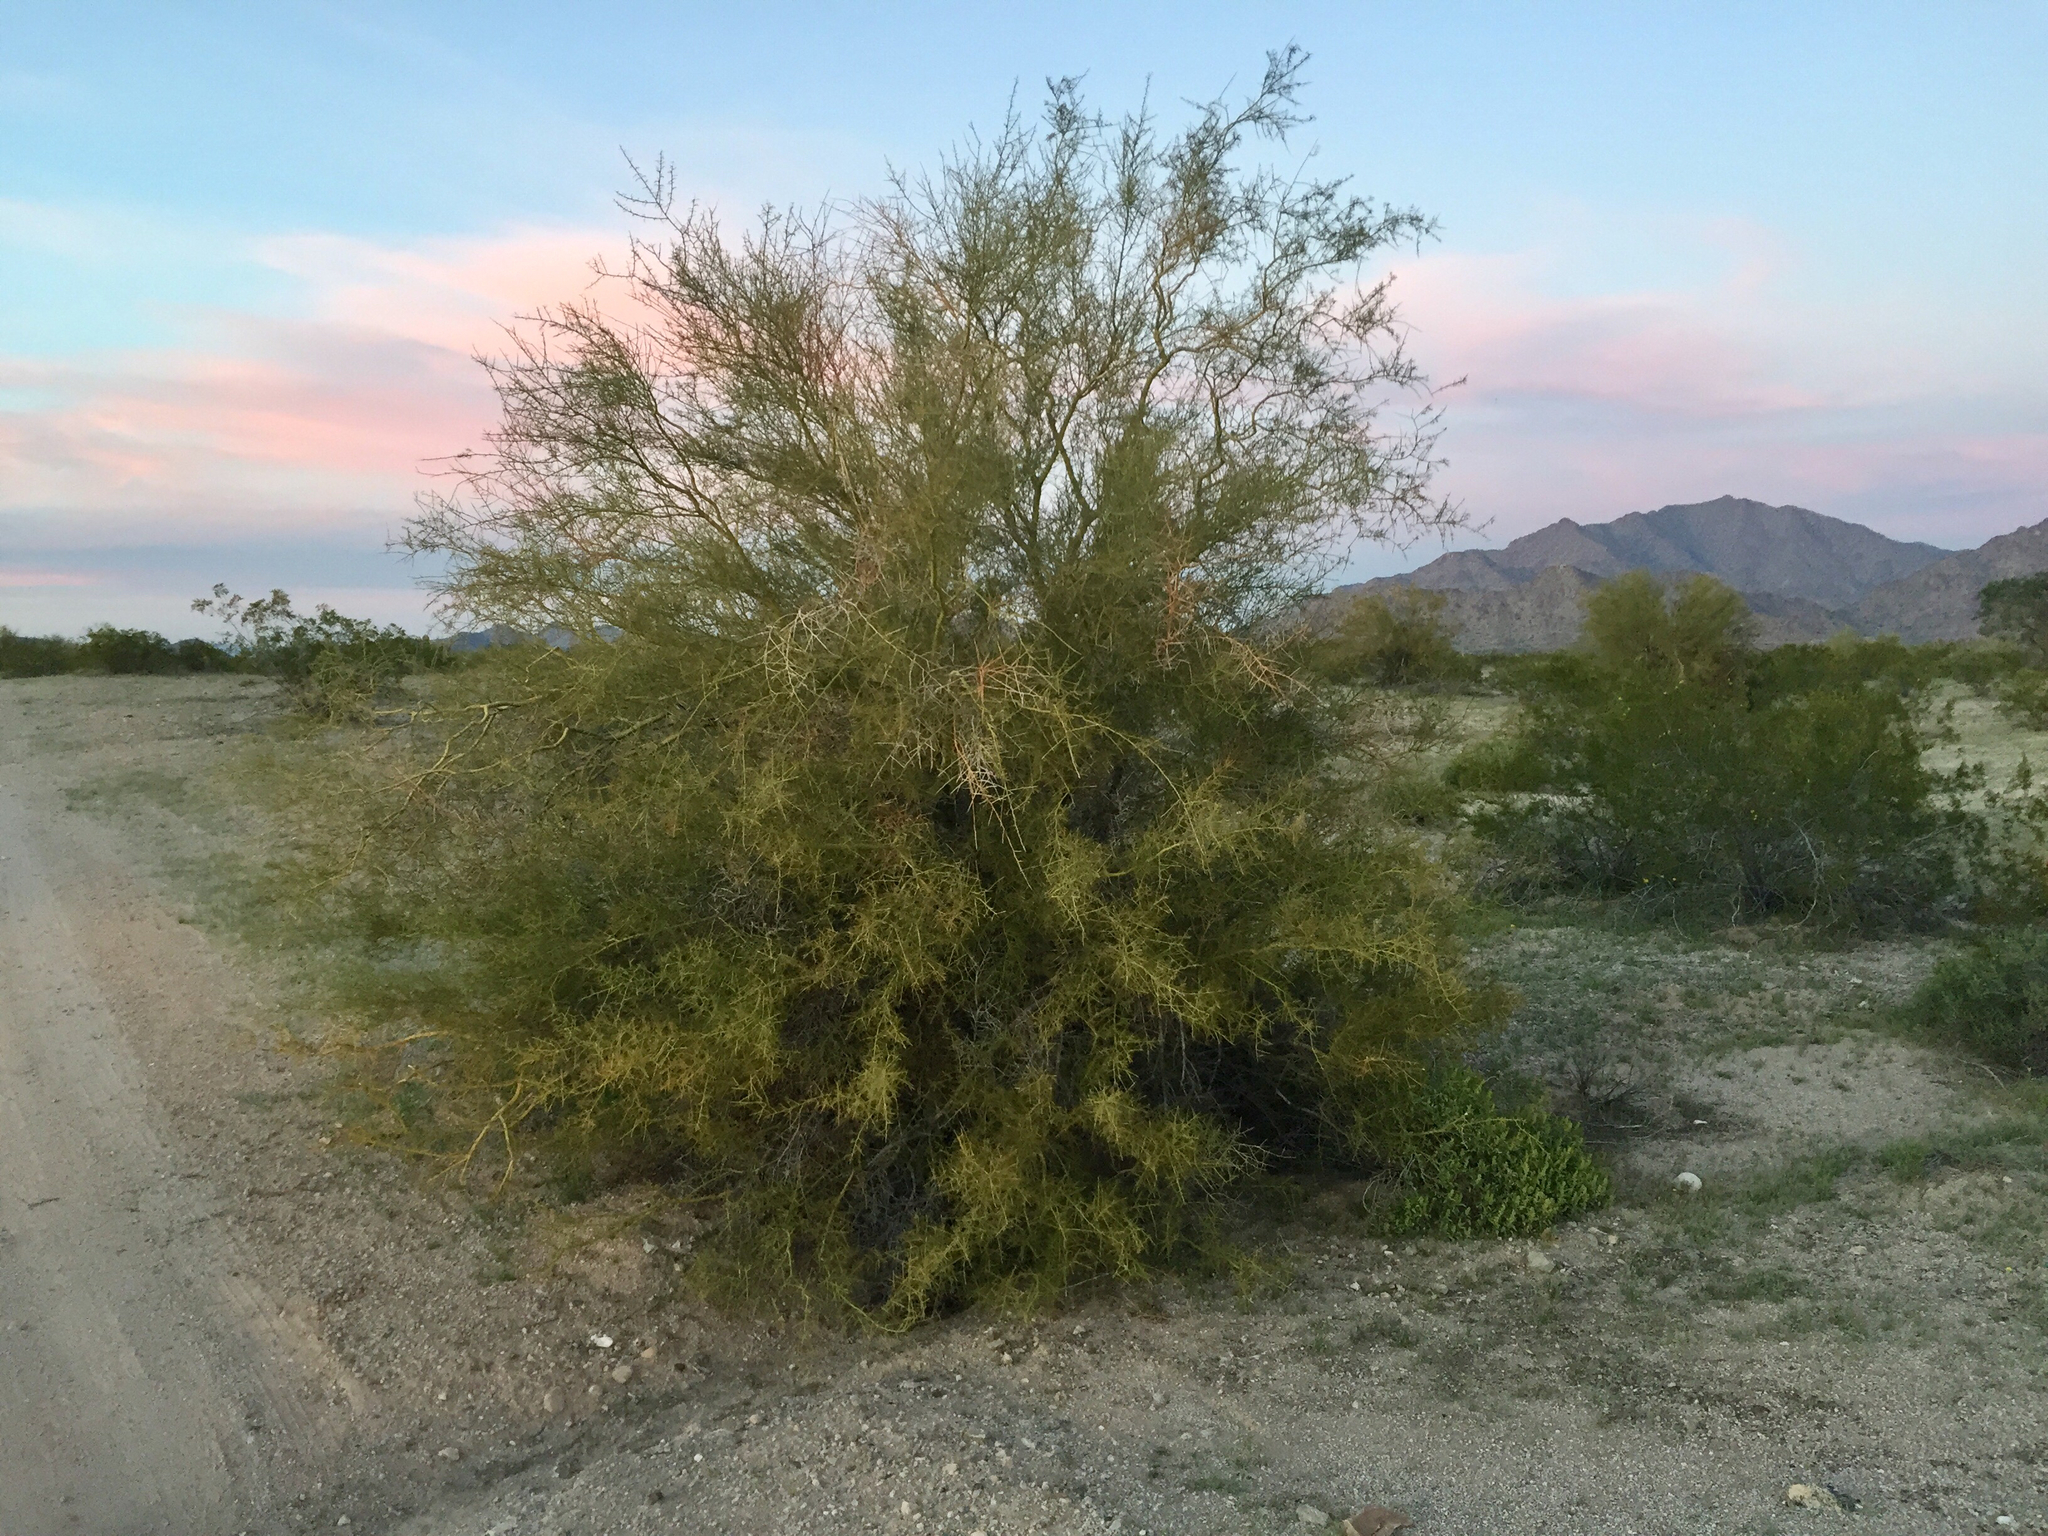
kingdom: Plantae
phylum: Tracheophyta
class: Magnoliopsida
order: Fabales
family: Fabaceae
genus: Parkinsonia
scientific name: Parkinsonia microphylla
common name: Yellow paloverde
